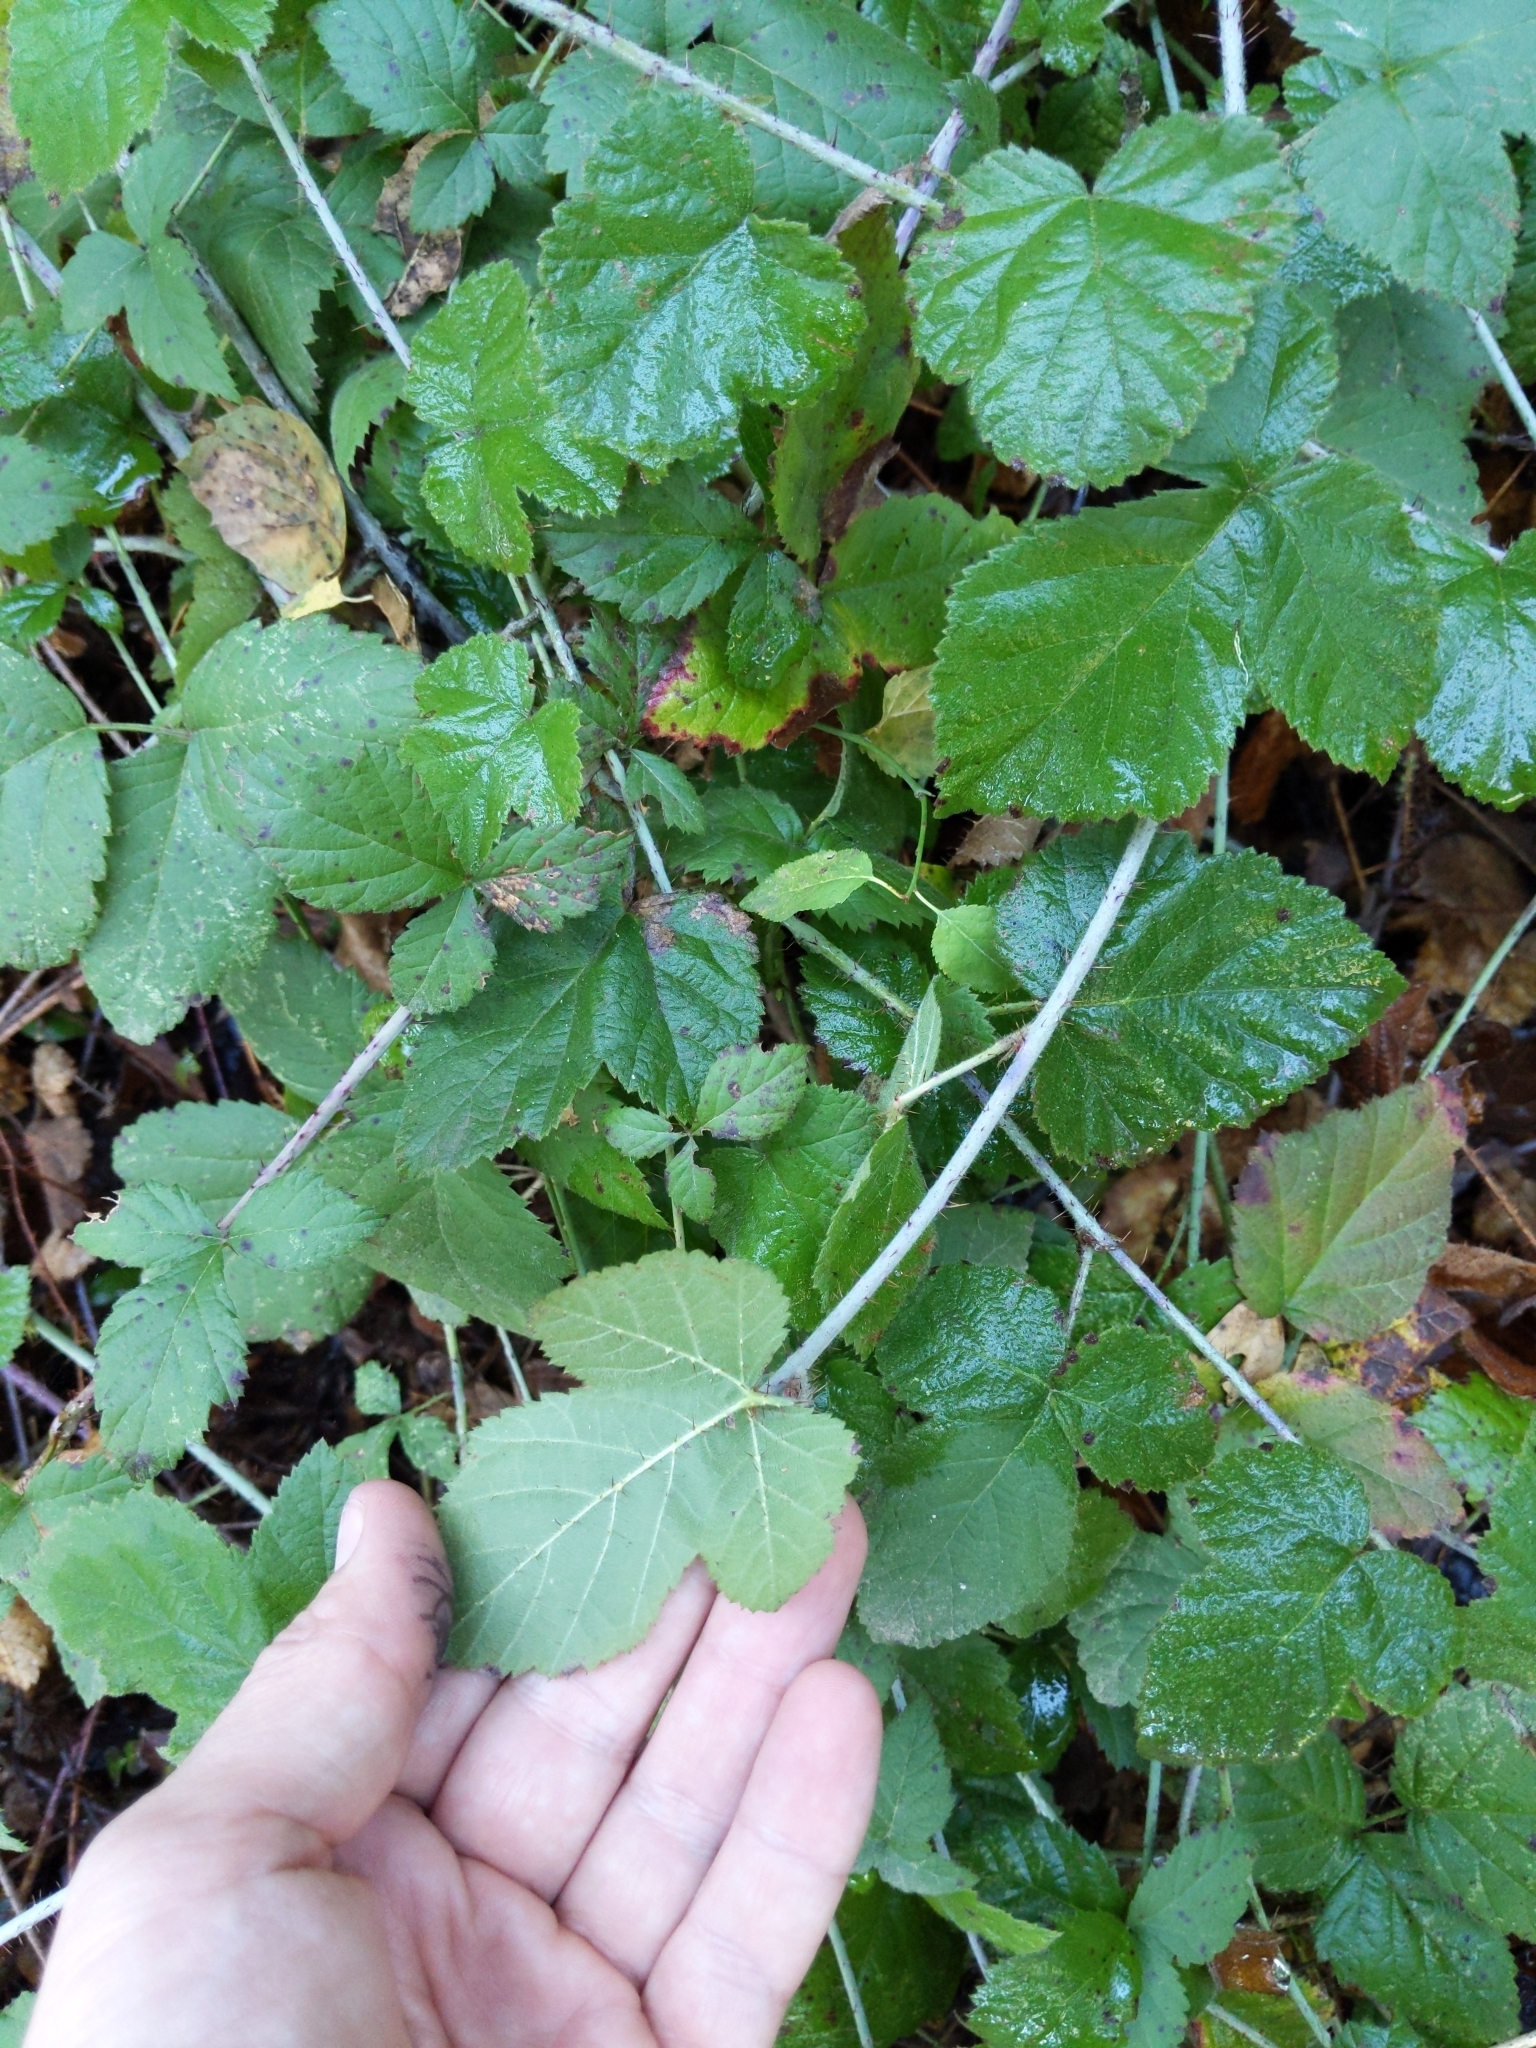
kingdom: Plantae
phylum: Tracheophyta
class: Magnoliopsida
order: Rosales
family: Rosaceae
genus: Rubus
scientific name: Rubus ursinus
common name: Pacific blackberry
